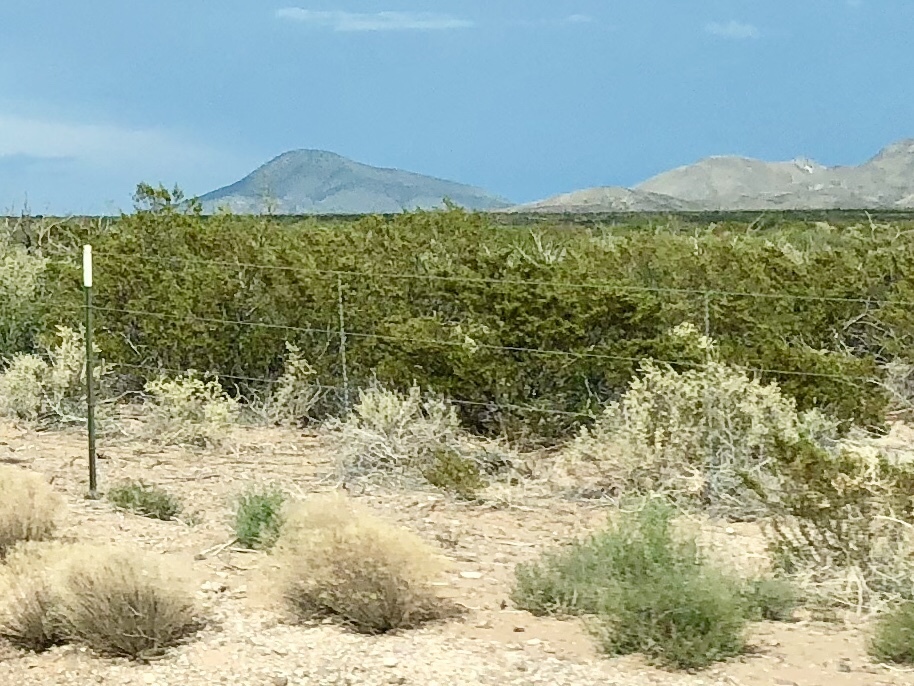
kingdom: Plantae
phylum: Tracheophyta
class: Magnoliopsida
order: Zygophyllales
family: Zygophyllaceae
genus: Larrea
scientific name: Larrea tridentata
